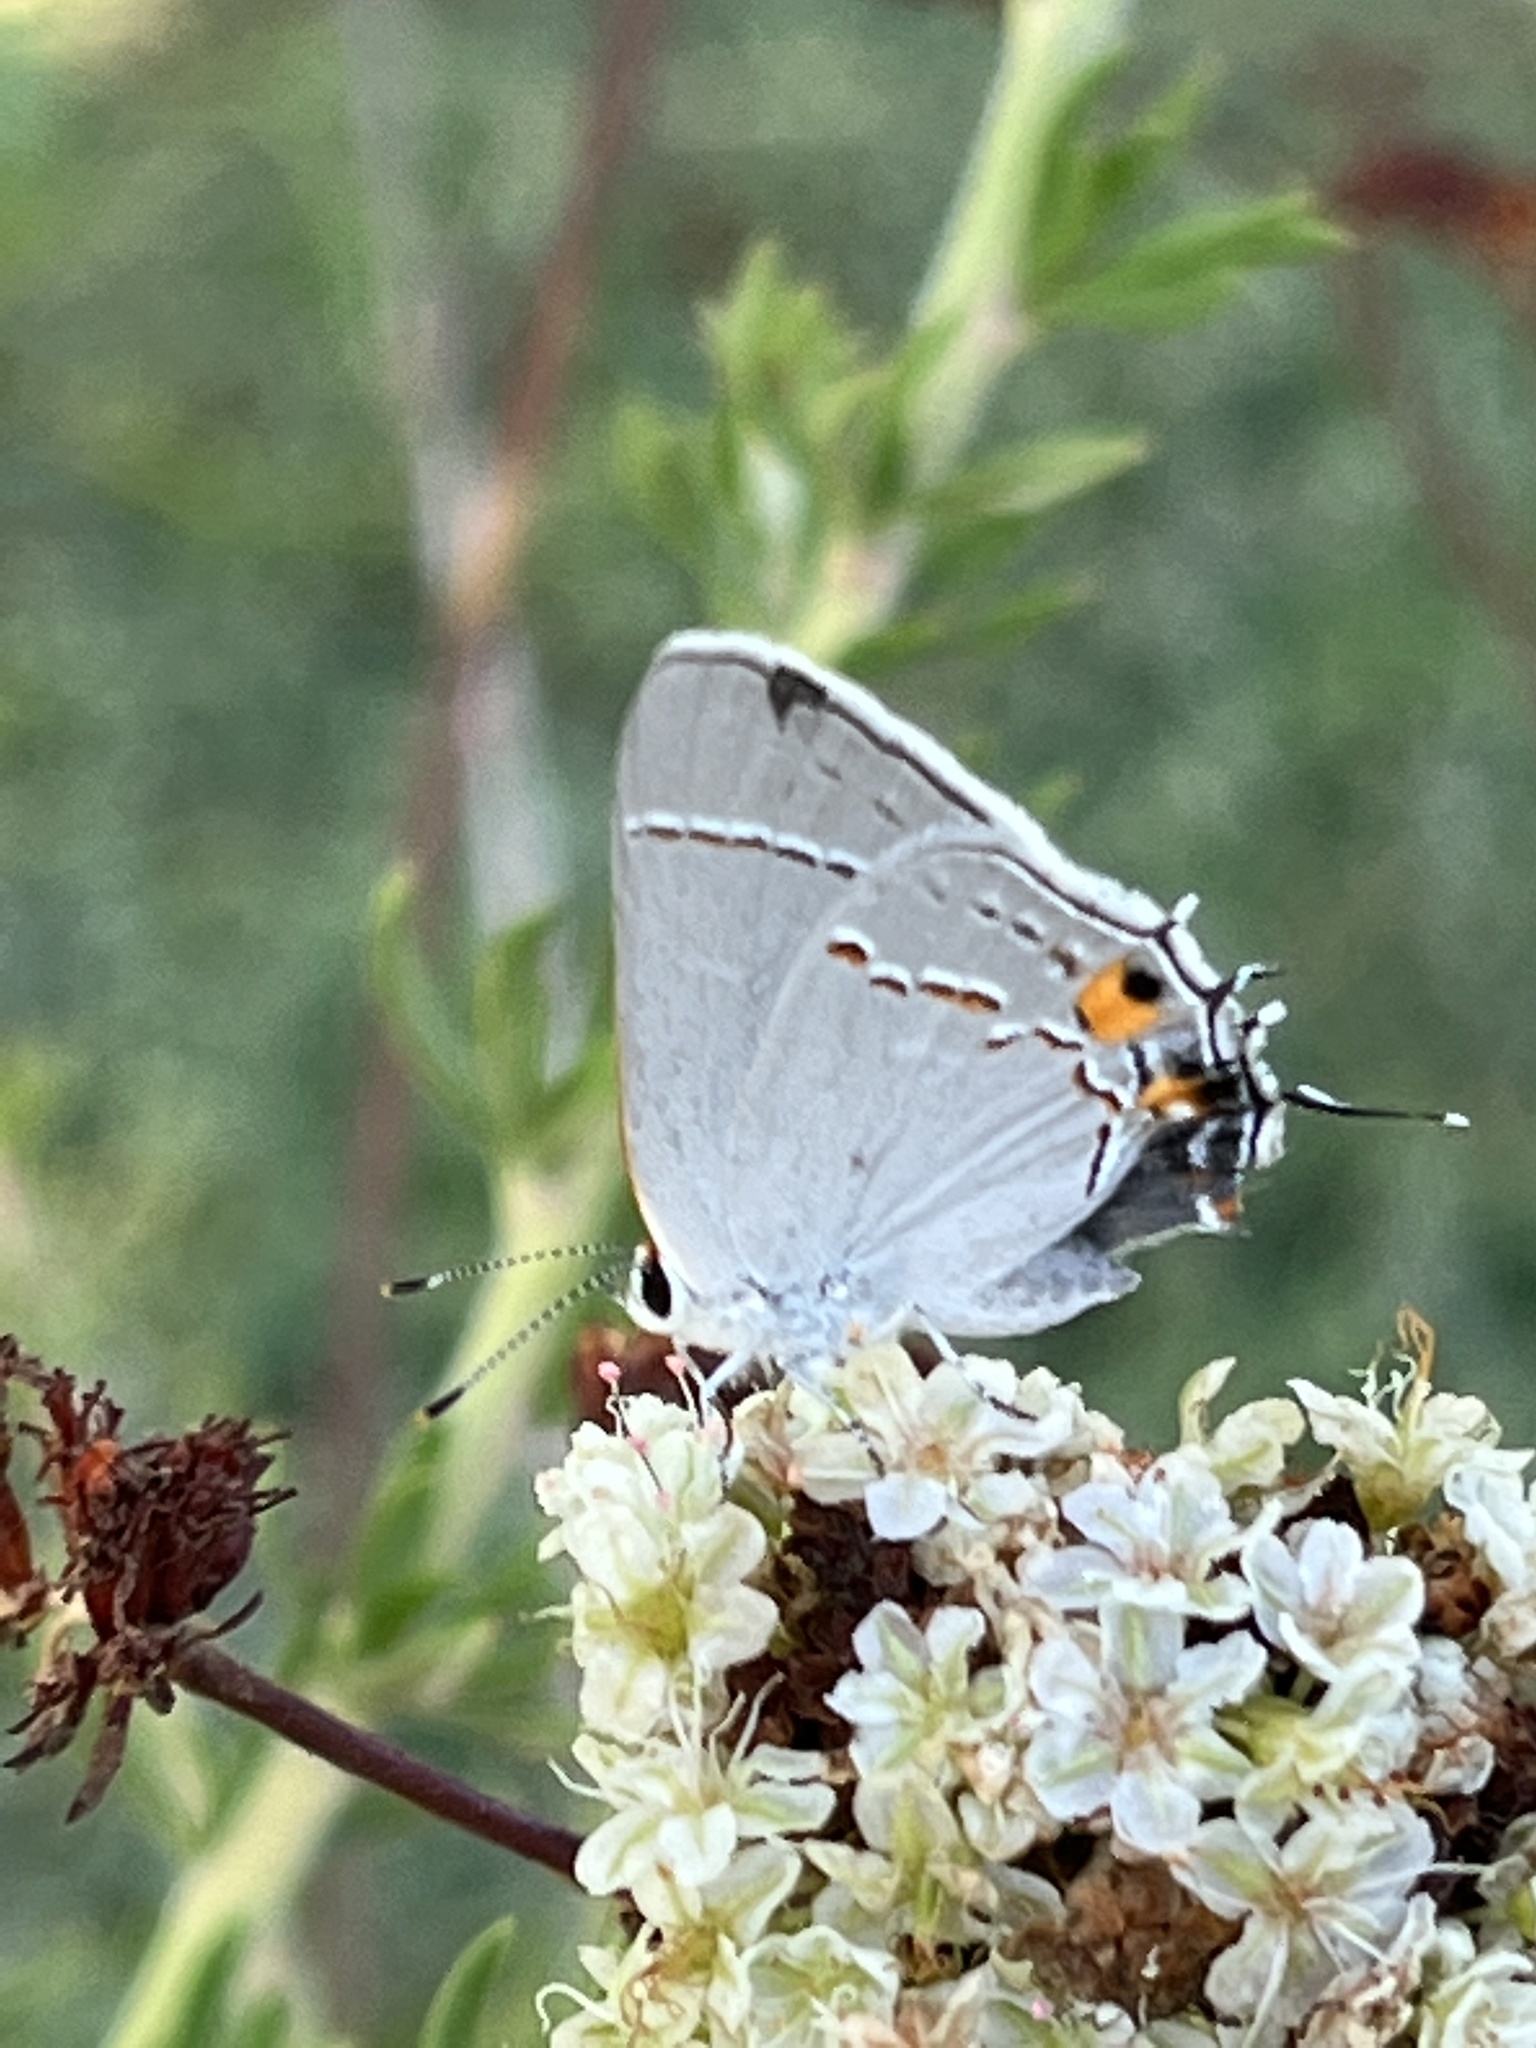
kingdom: Animalia
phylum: Arthropoda
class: Insecta
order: Lepidoptera
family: Lycaenidae
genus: Strymon
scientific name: Strymon melinus
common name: Gray hairstreak
